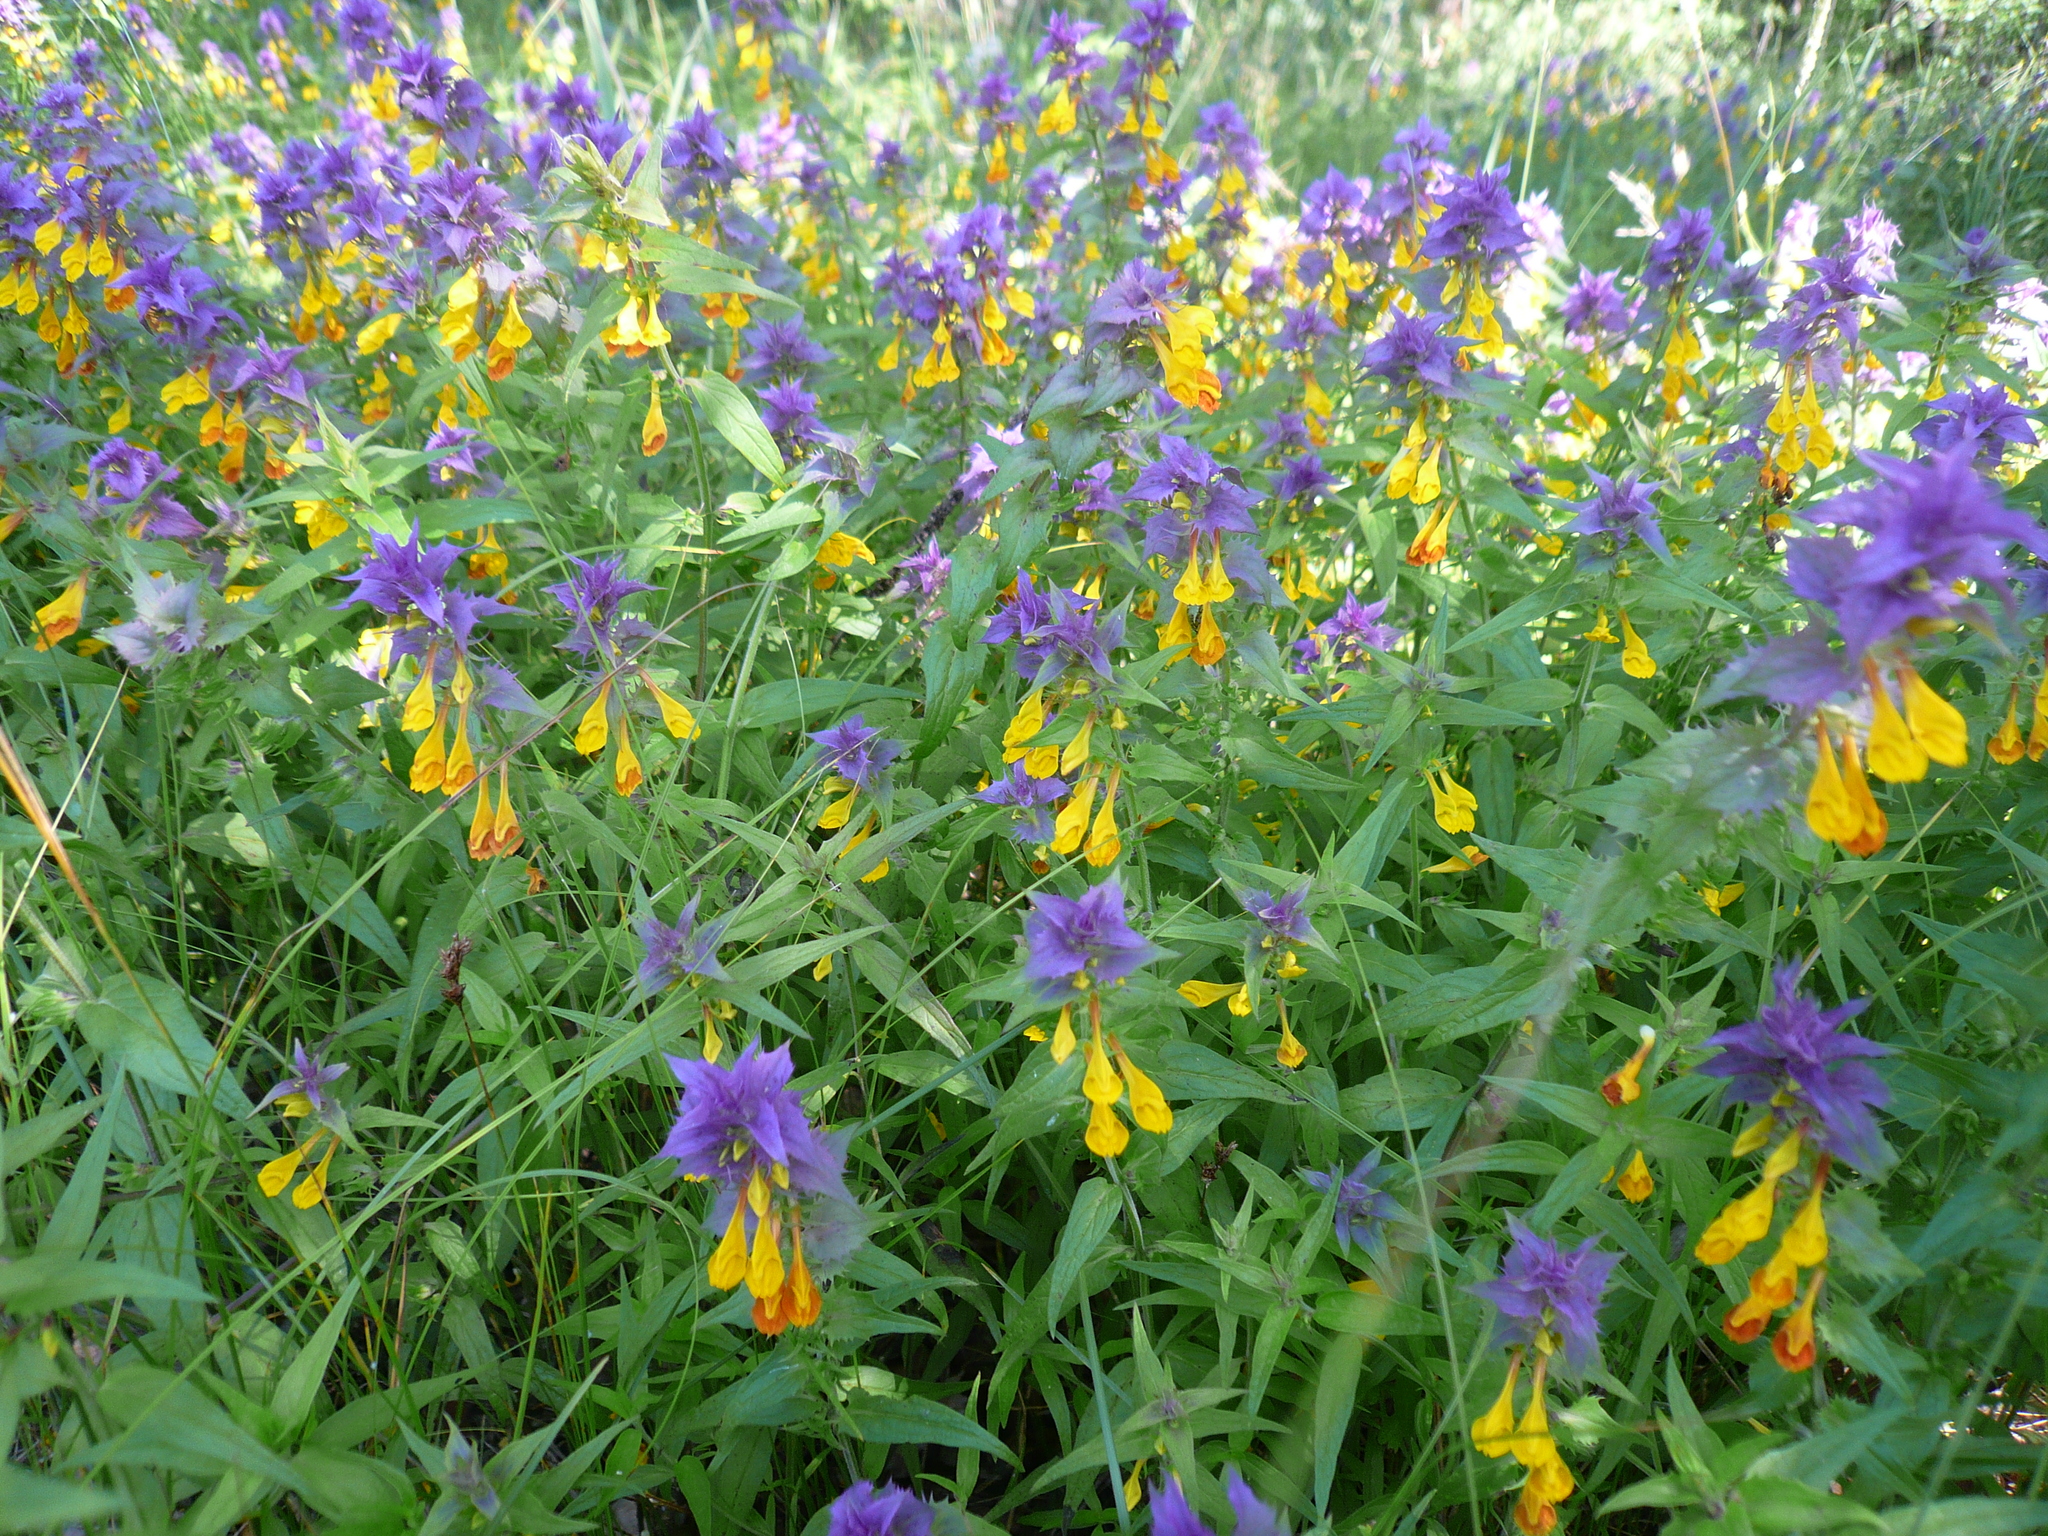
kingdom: Plantae
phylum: Tracheophyta
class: Magnoliopsida
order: Lamiales
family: Orobanchaceae
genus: Melampyrum
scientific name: Melampyrum nemorosum
